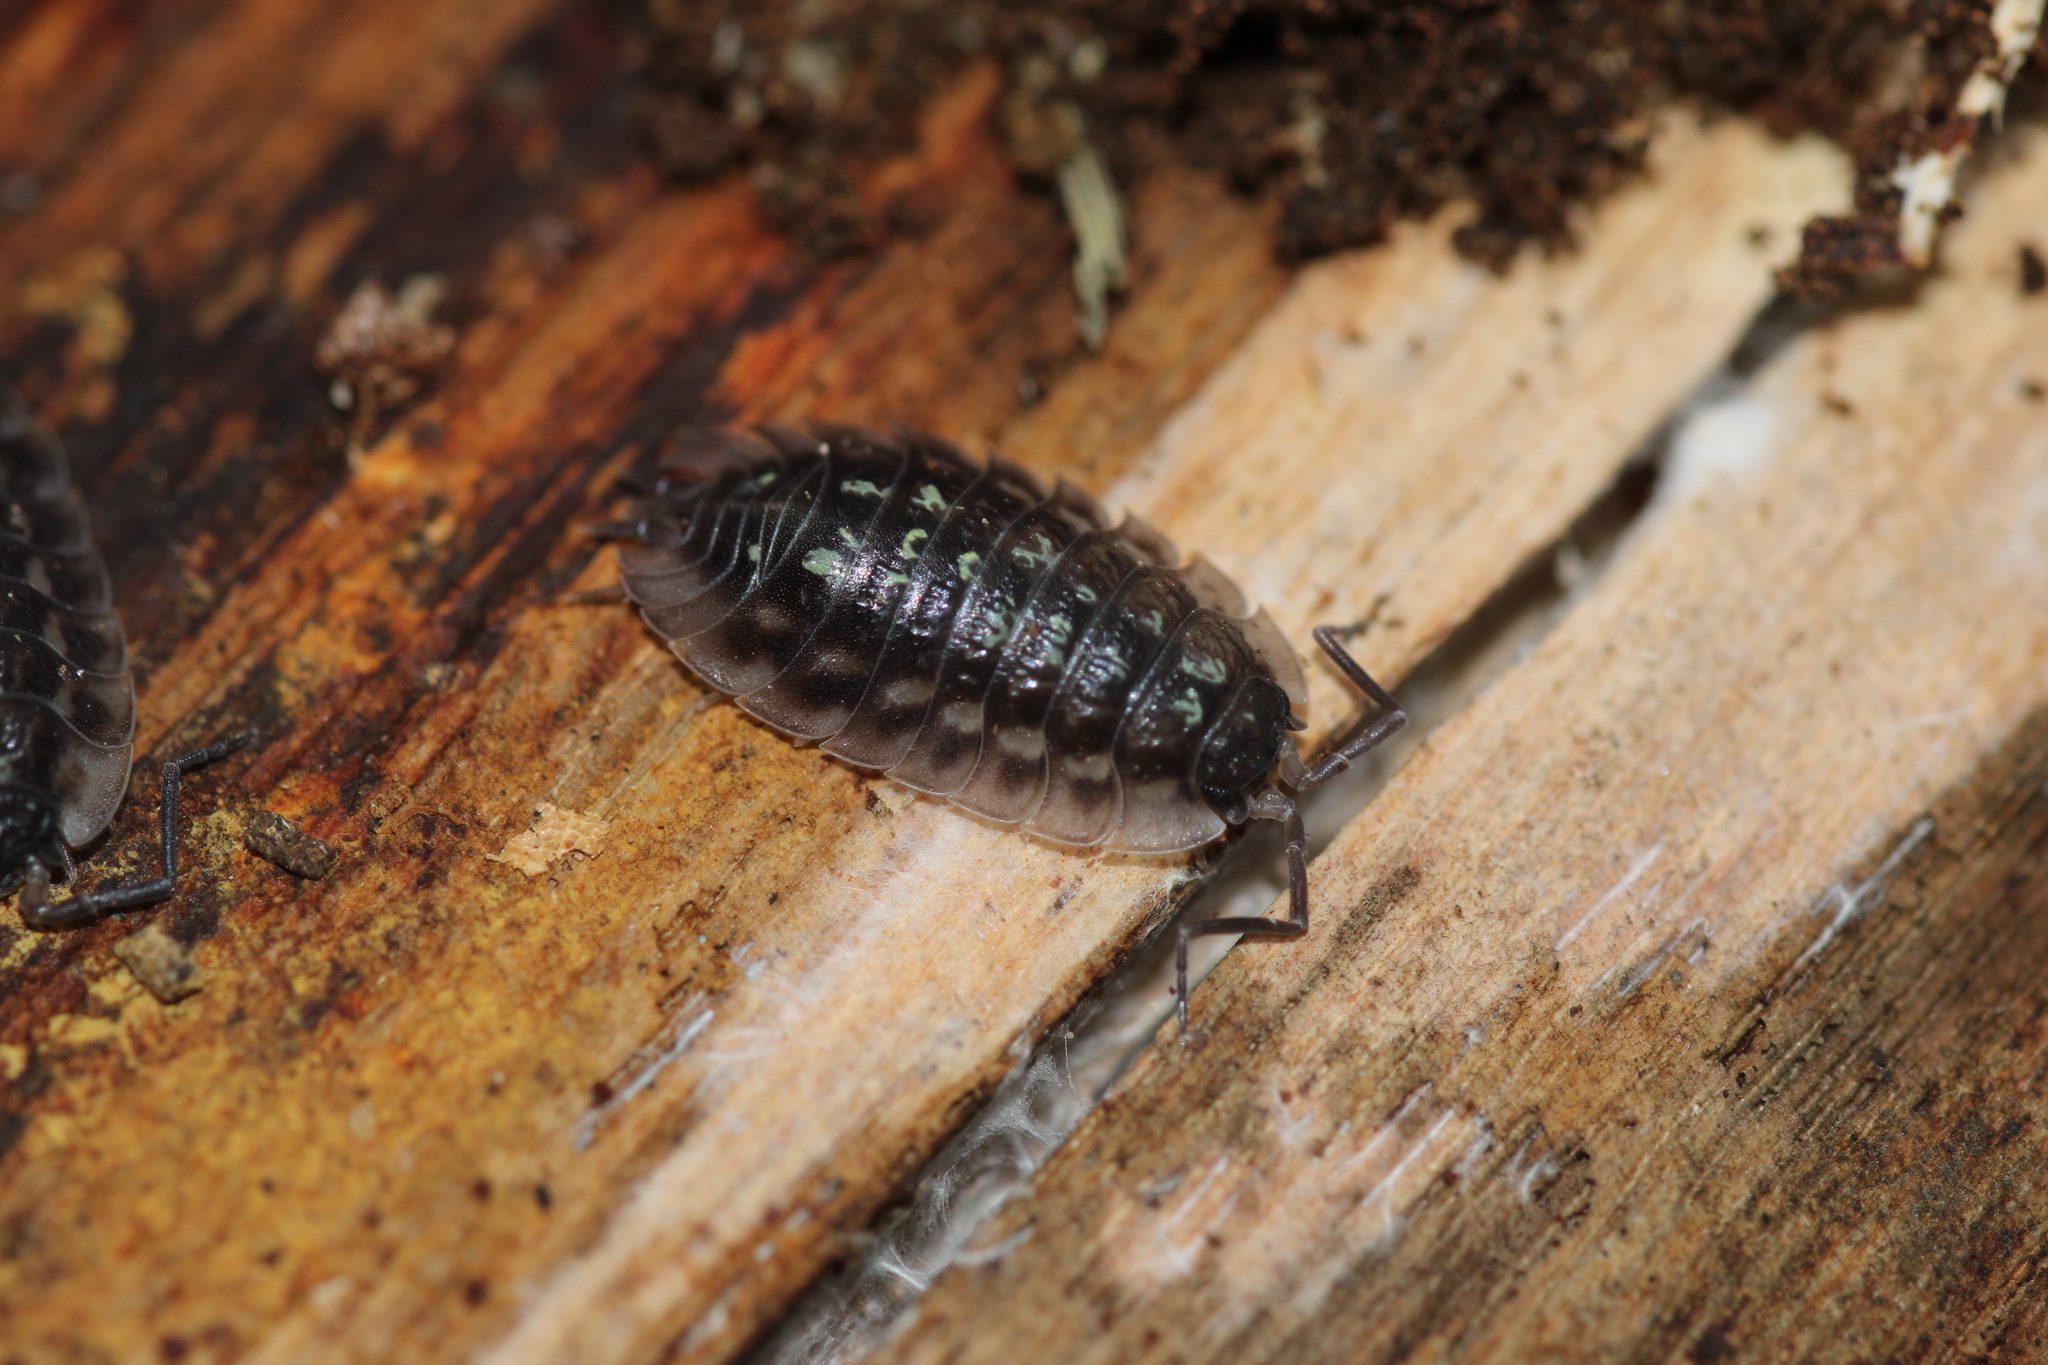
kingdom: Animalia
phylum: Arthropoda
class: Malacostraca
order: Isopoda
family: Oniscidae
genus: Oniscus
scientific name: Oniscus asellus
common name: Common shiny woodlouse
